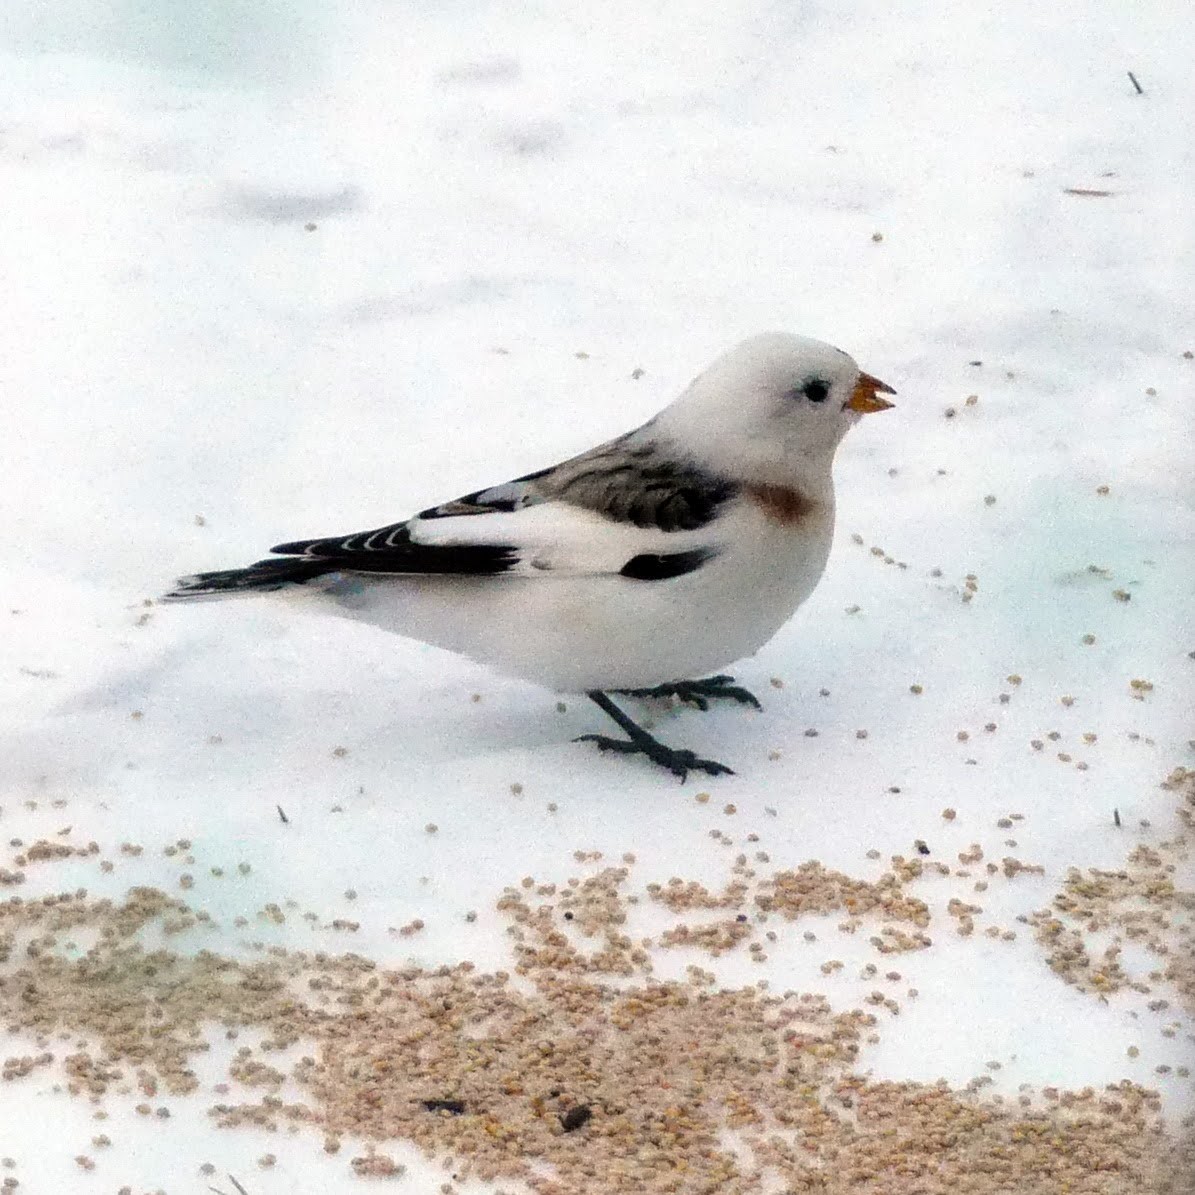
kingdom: Animalia
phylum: Chordata
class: Aves
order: Passeriformes
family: Calcariidae
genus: Plectrophenax
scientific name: Plectrophenax nivalis
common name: Snow bunting
